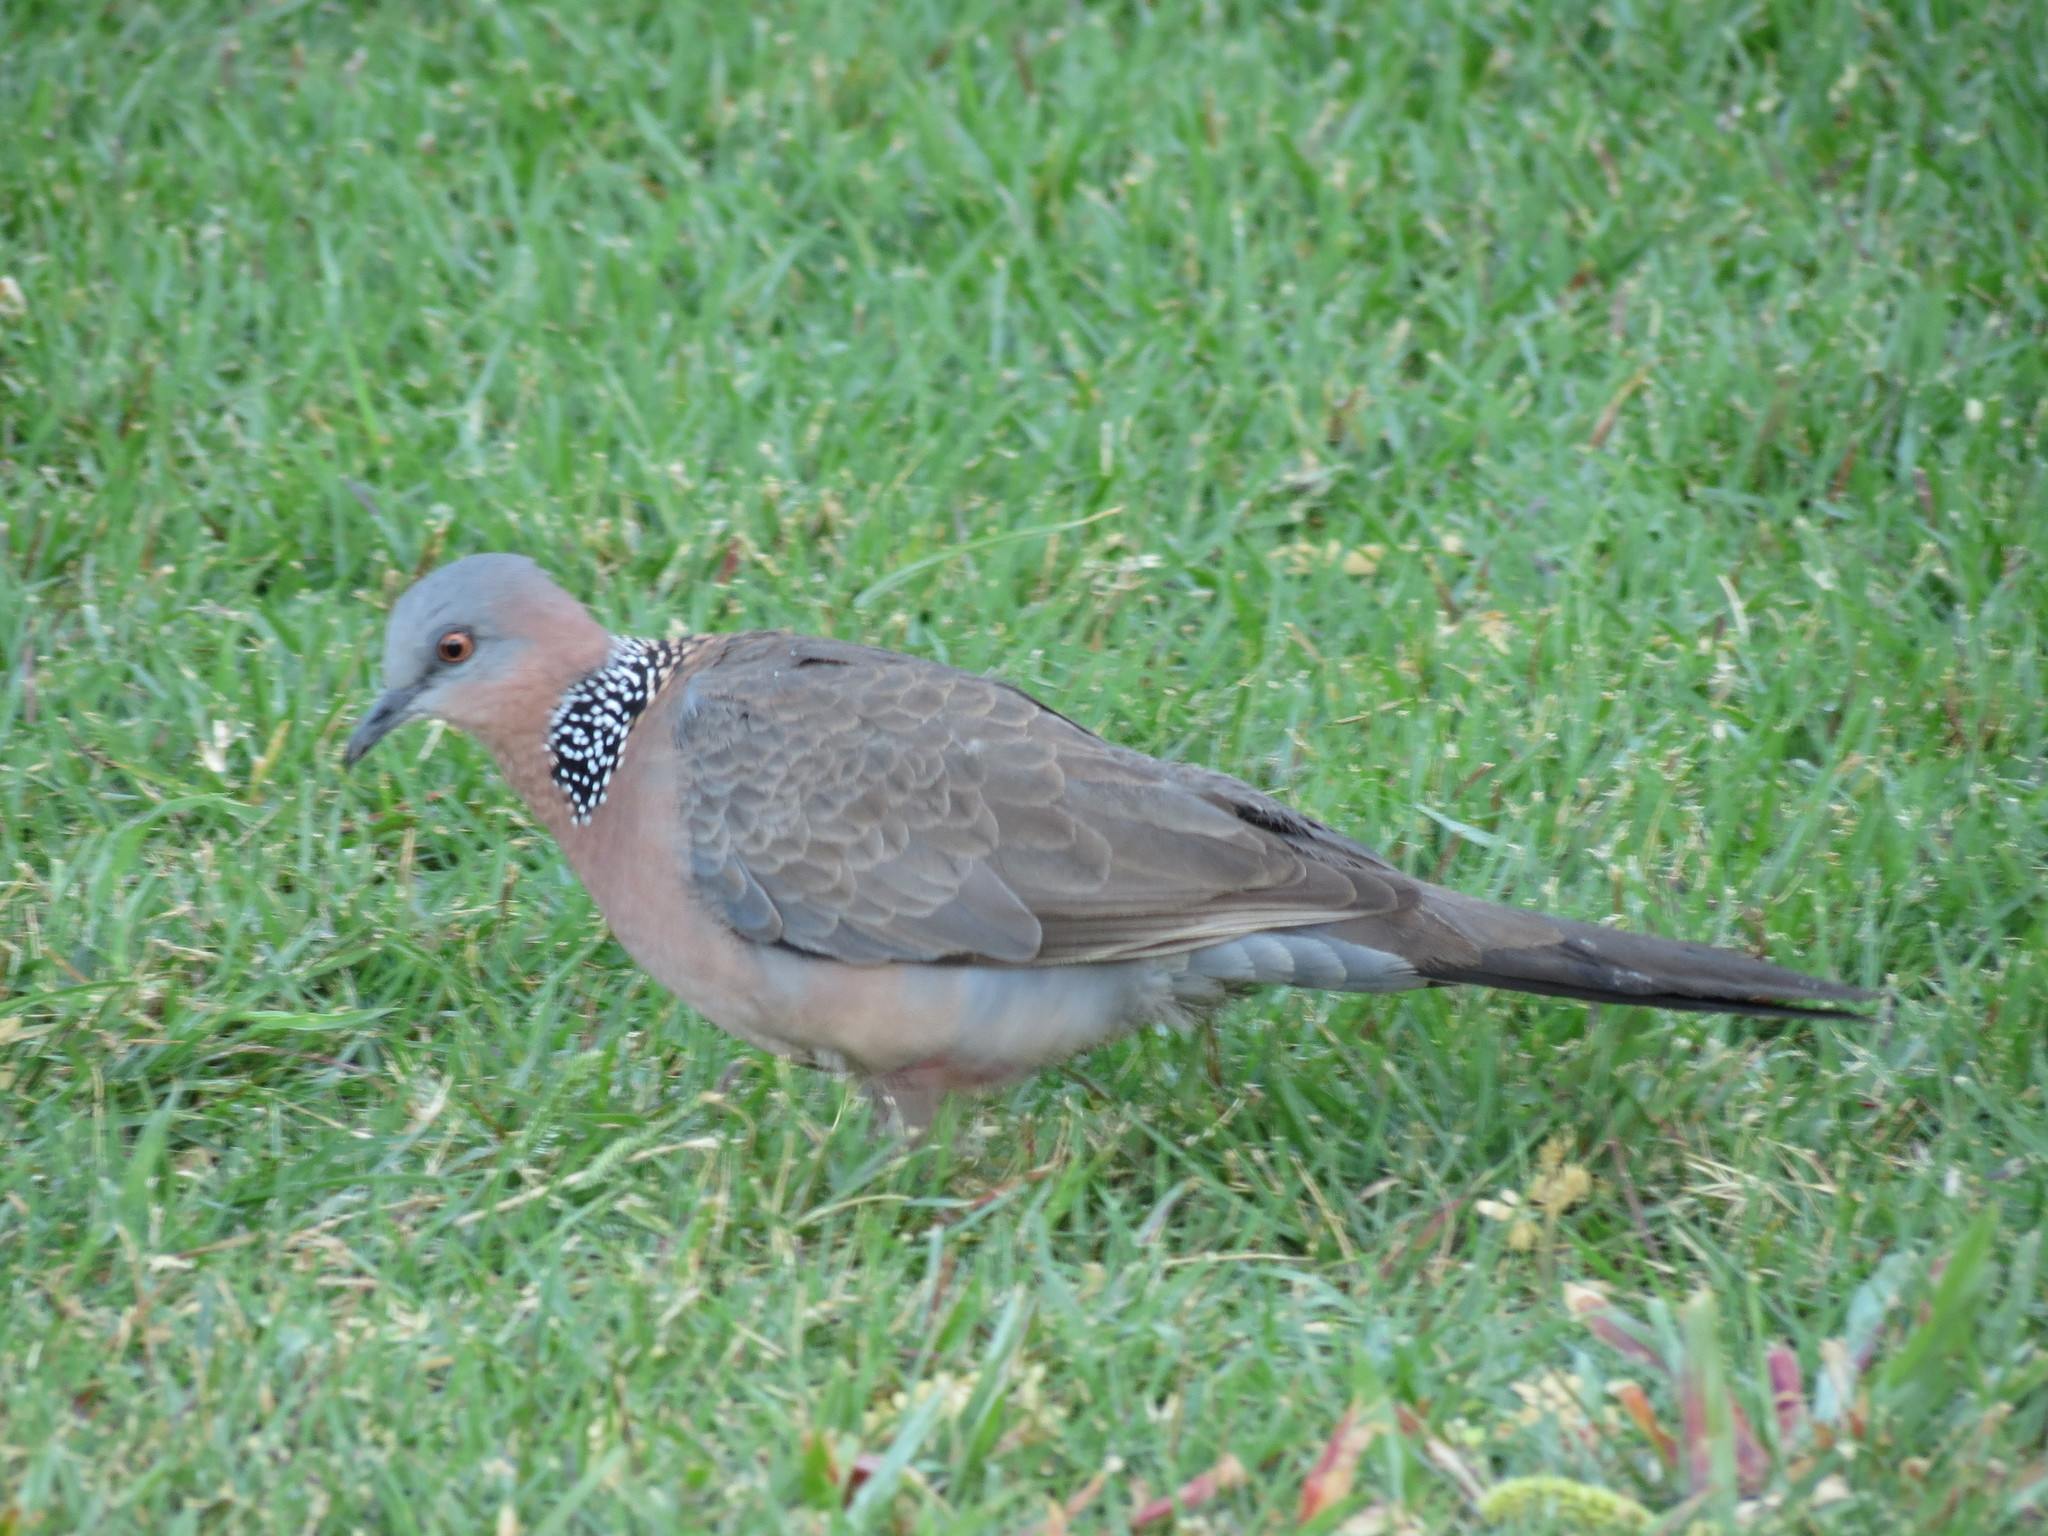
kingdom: Animalia
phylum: Chordata
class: Aves
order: Columbiformes
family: Columbidae
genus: Spilopelia
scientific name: Spilopelia chinensis
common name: Spotted dove
